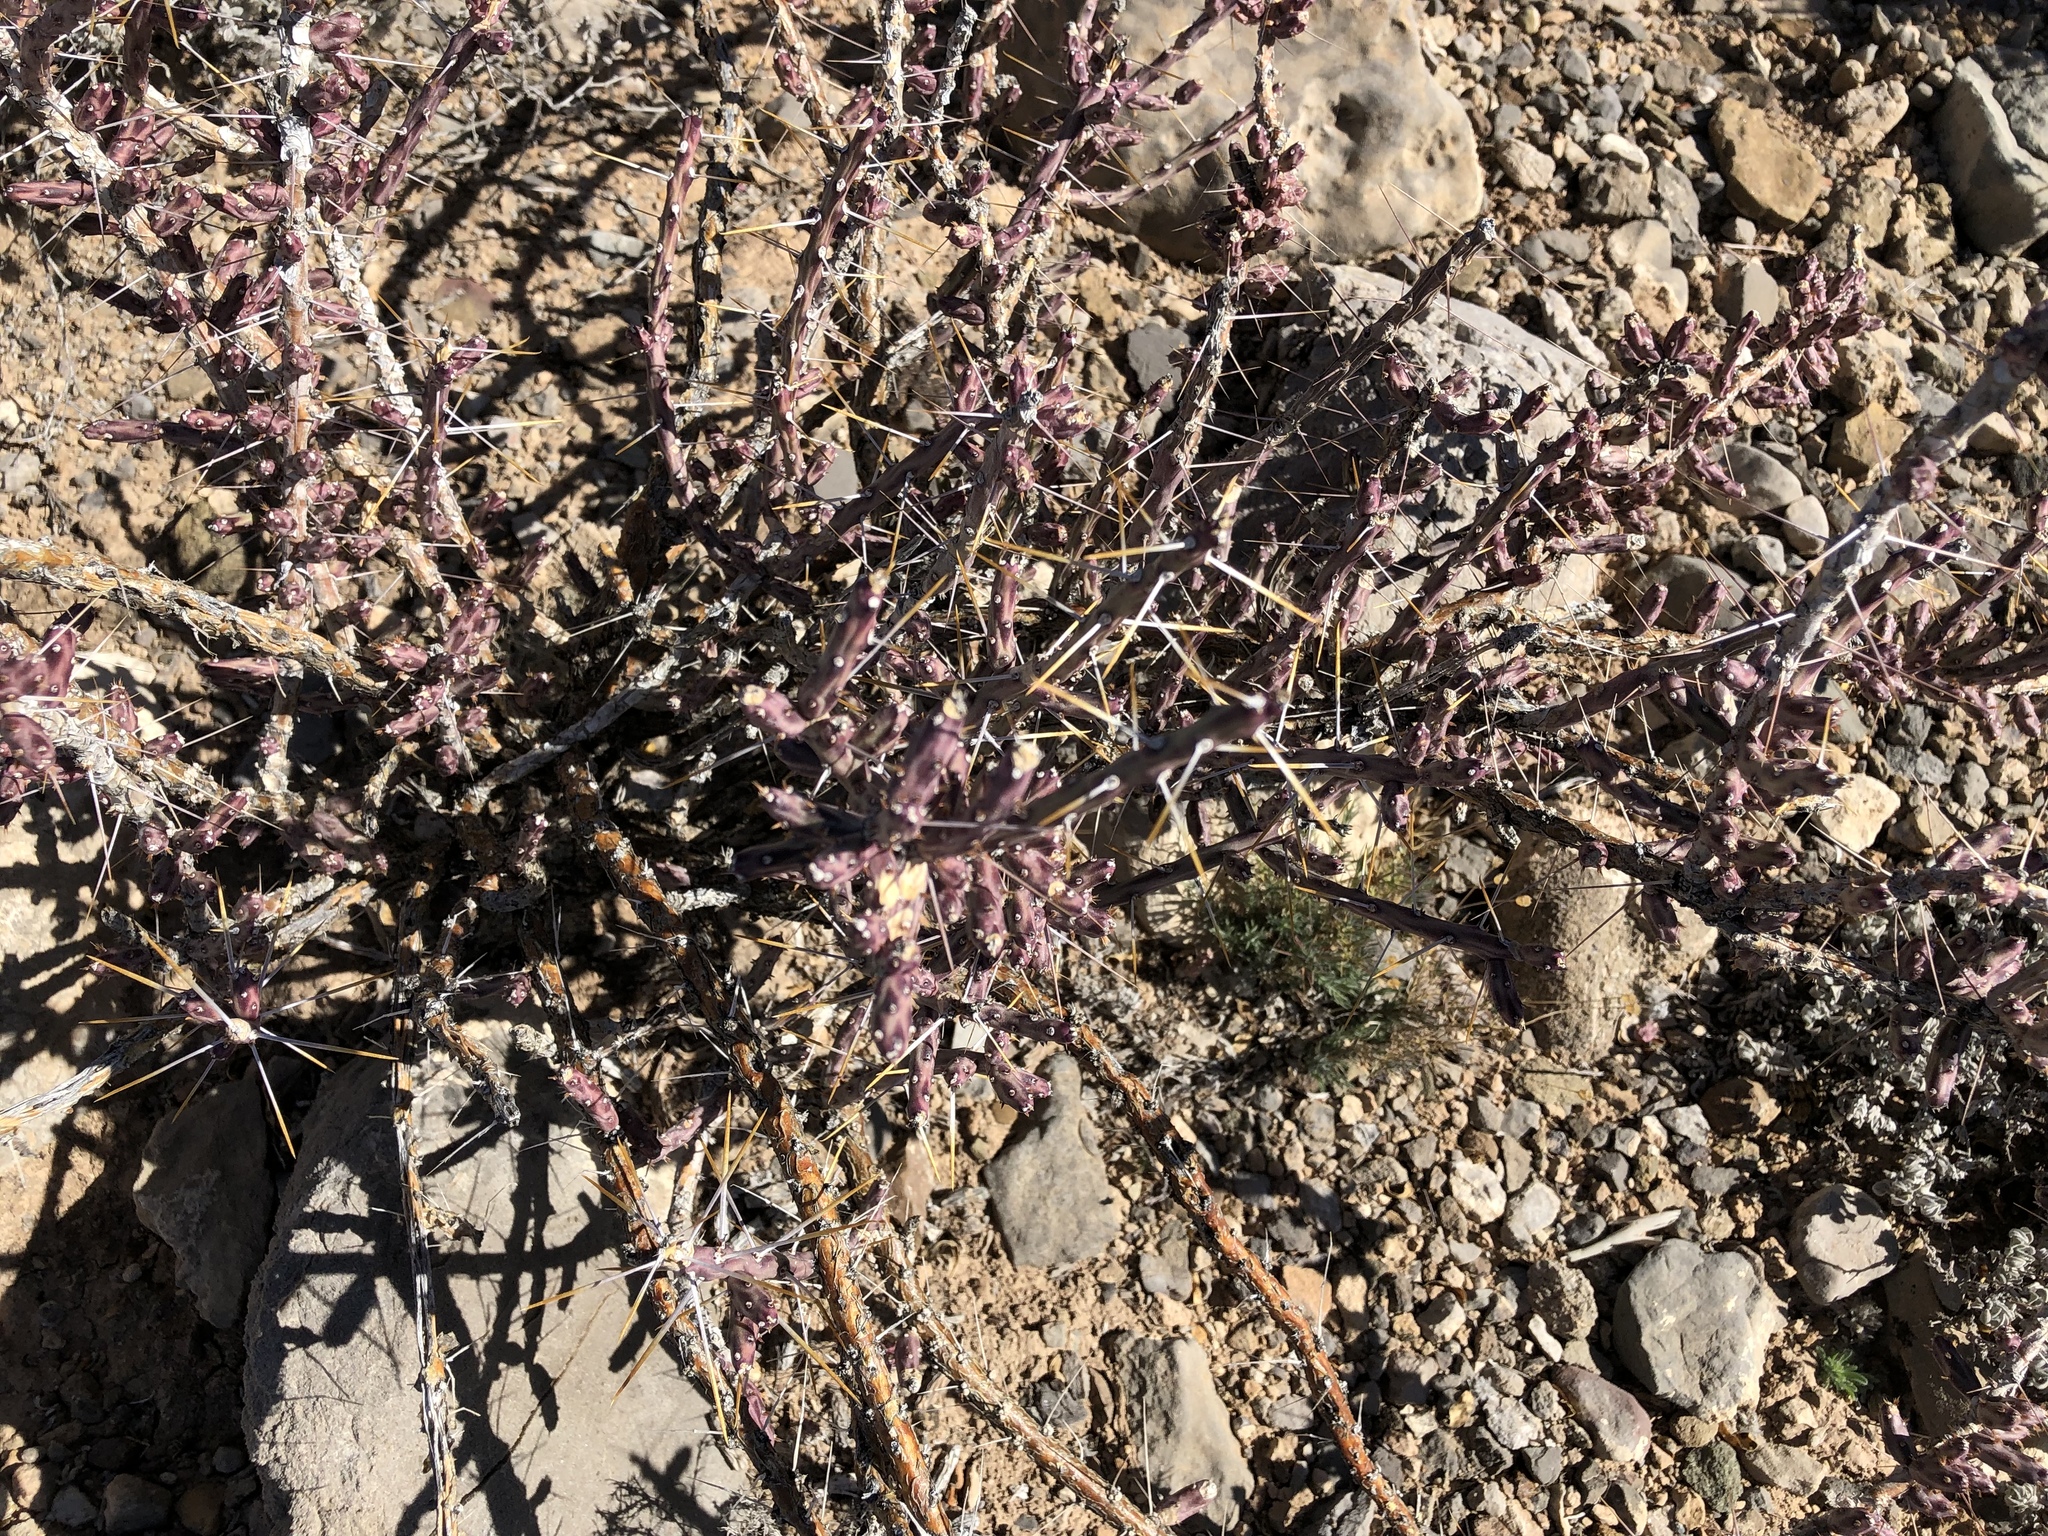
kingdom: Plantae
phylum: Tracheophyta
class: Magnoliopsida
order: Caryophyllales
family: Cactaceae
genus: Cylindropuntia
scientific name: Cylindropuntia leptocaulis
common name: Christmas cactus
